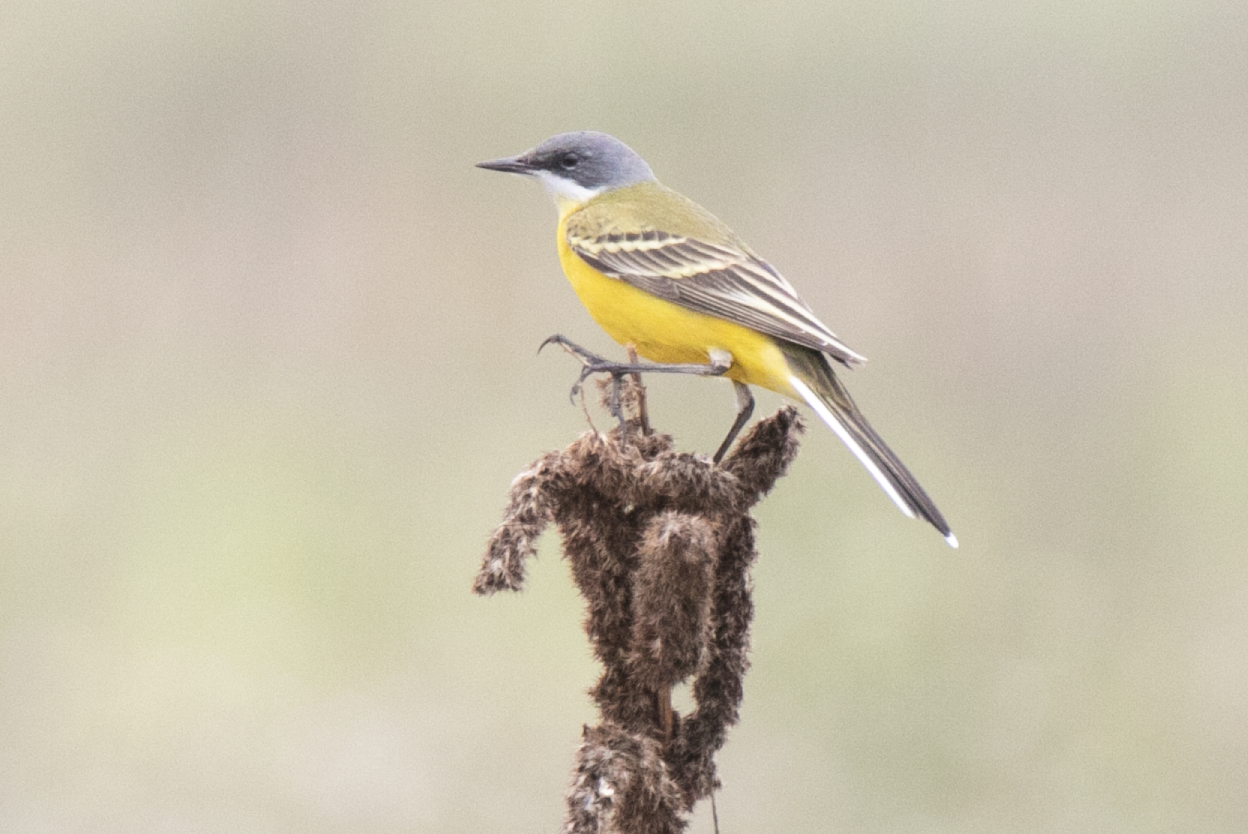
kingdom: Animalia
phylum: Chordata
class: Aves
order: Passeriformes
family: Motacillidae
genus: Motacilla
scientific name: Motacilla flava
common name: Western yellow wagtail
